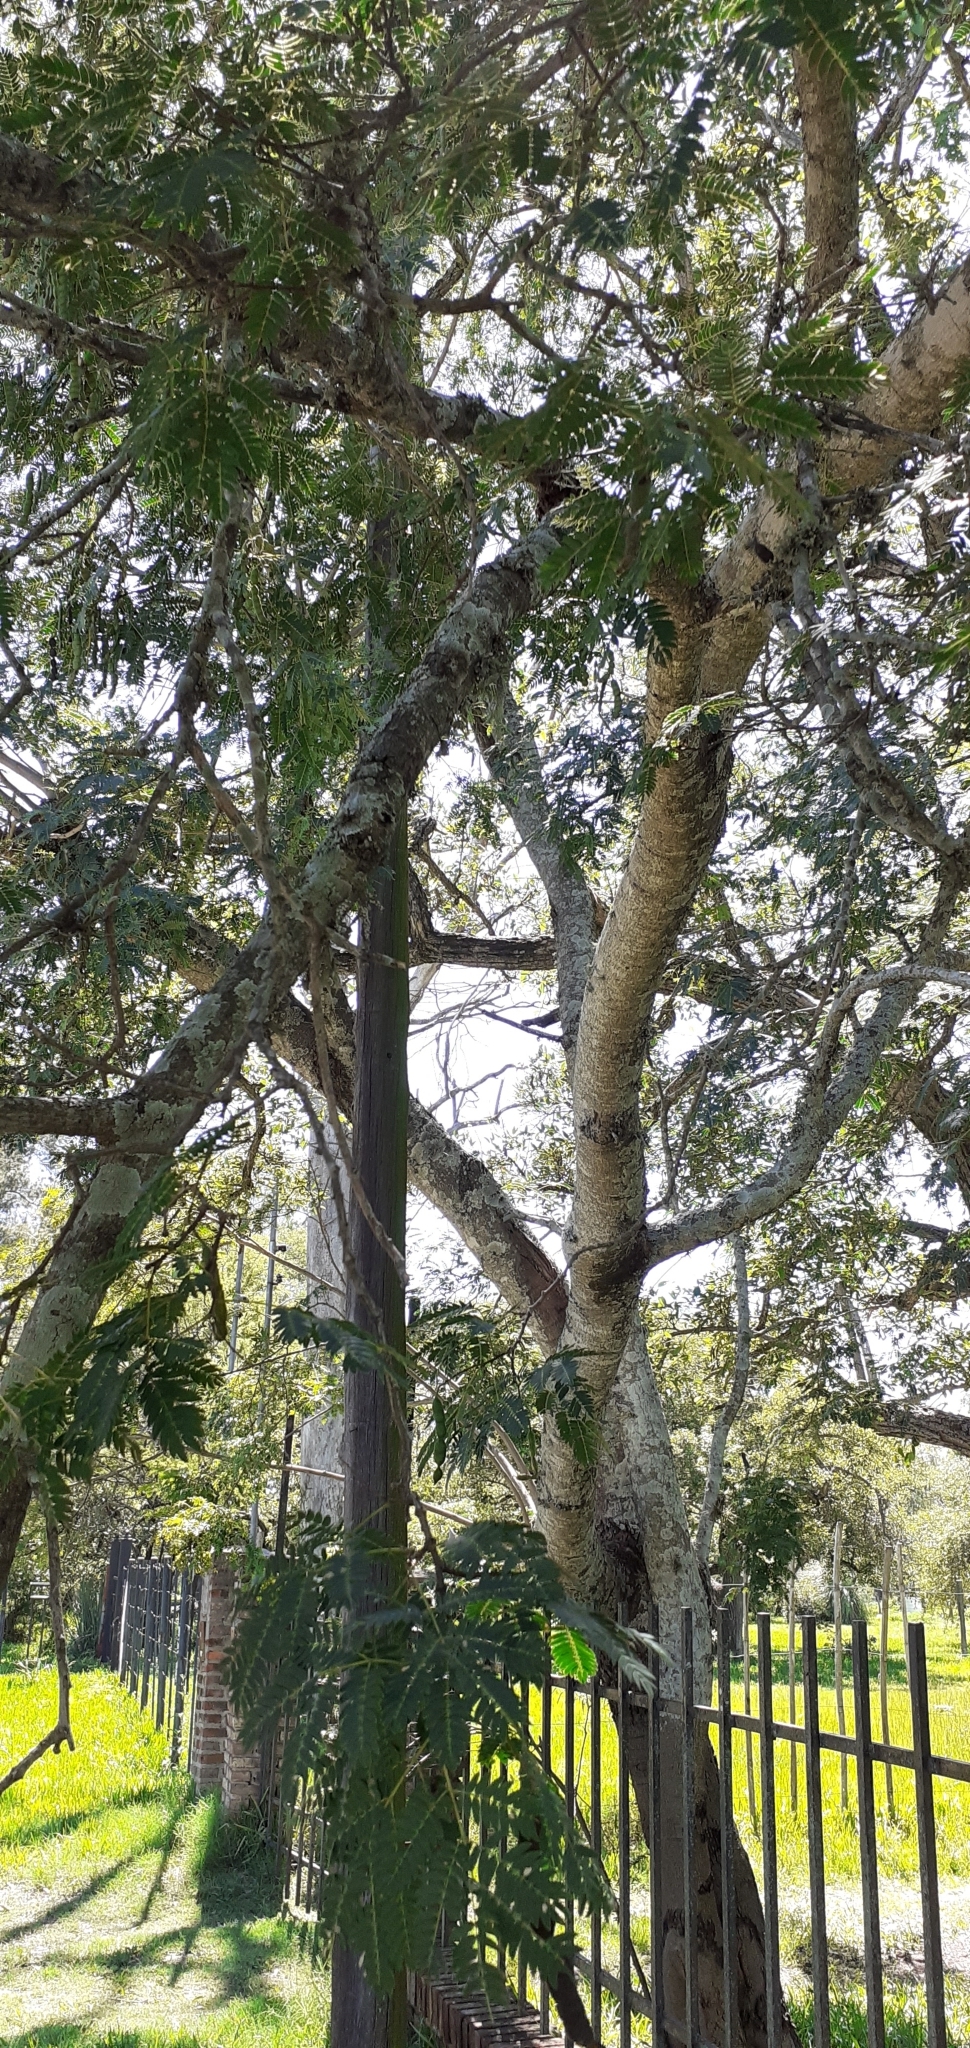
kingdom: Plantae
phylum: Tracheophyta
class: Magnoliopsida
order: Fabales
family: Fabaceae
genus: Albizia
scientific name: Albizia inundata
